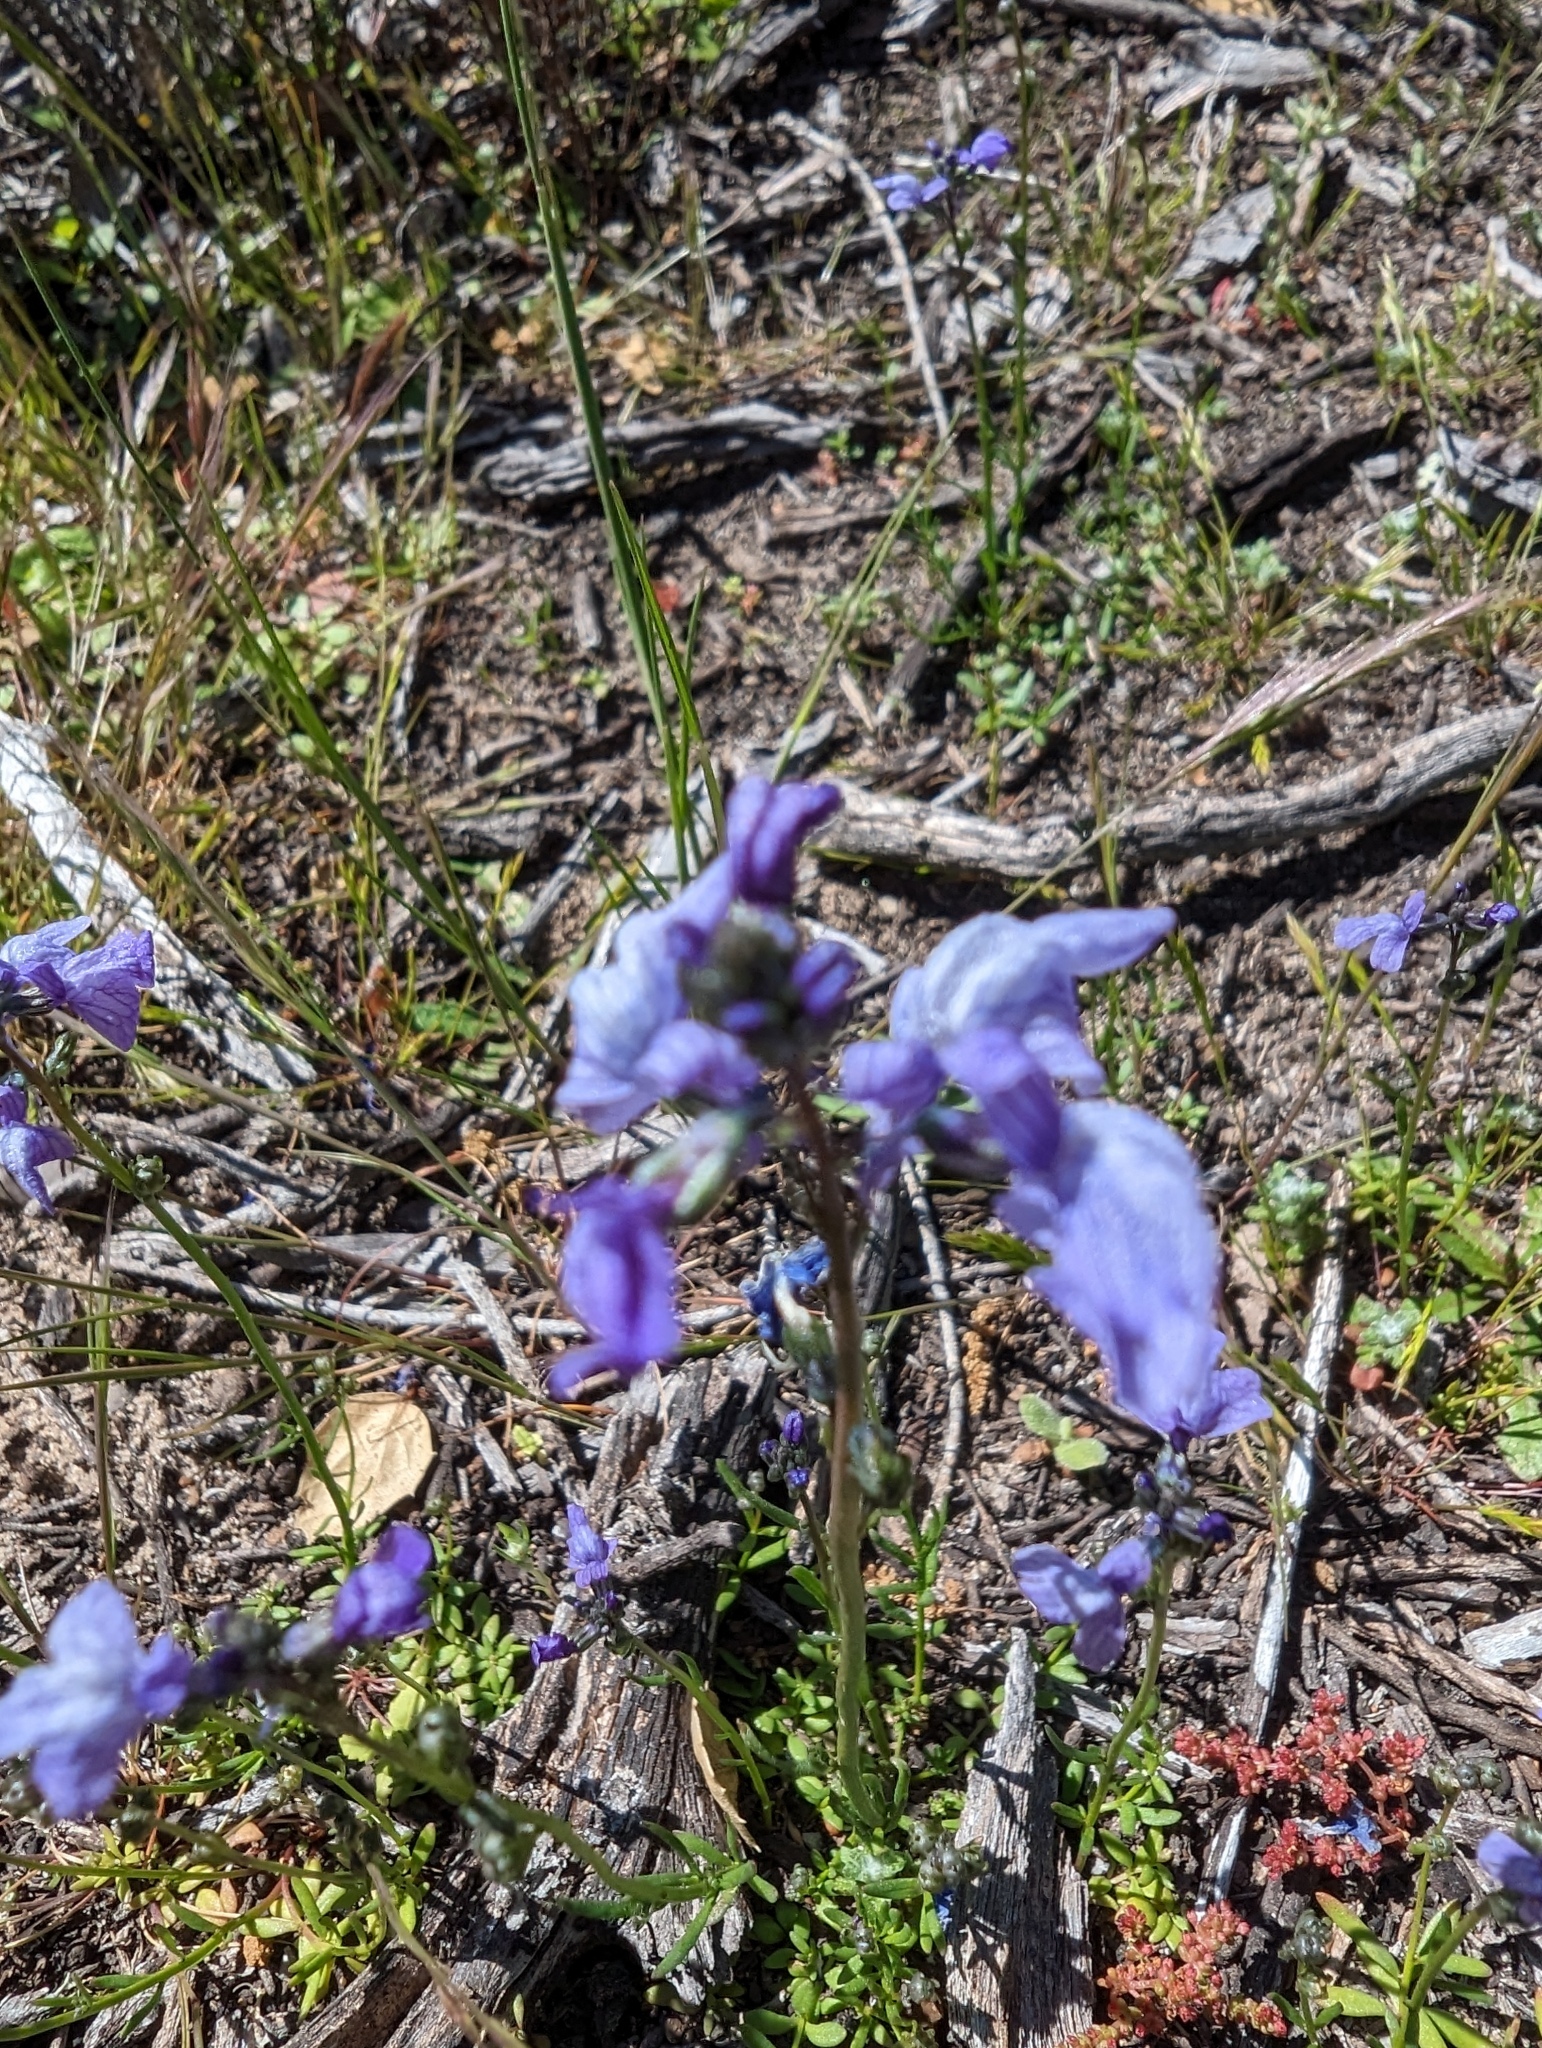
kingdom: Plantae
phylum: Tracheophyta
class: Magnoliopsida
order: Lamiales
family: Plantaginaceae
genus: Nuttallanthus
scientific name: Nuttallanthus texanus
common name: Texas toadflax
